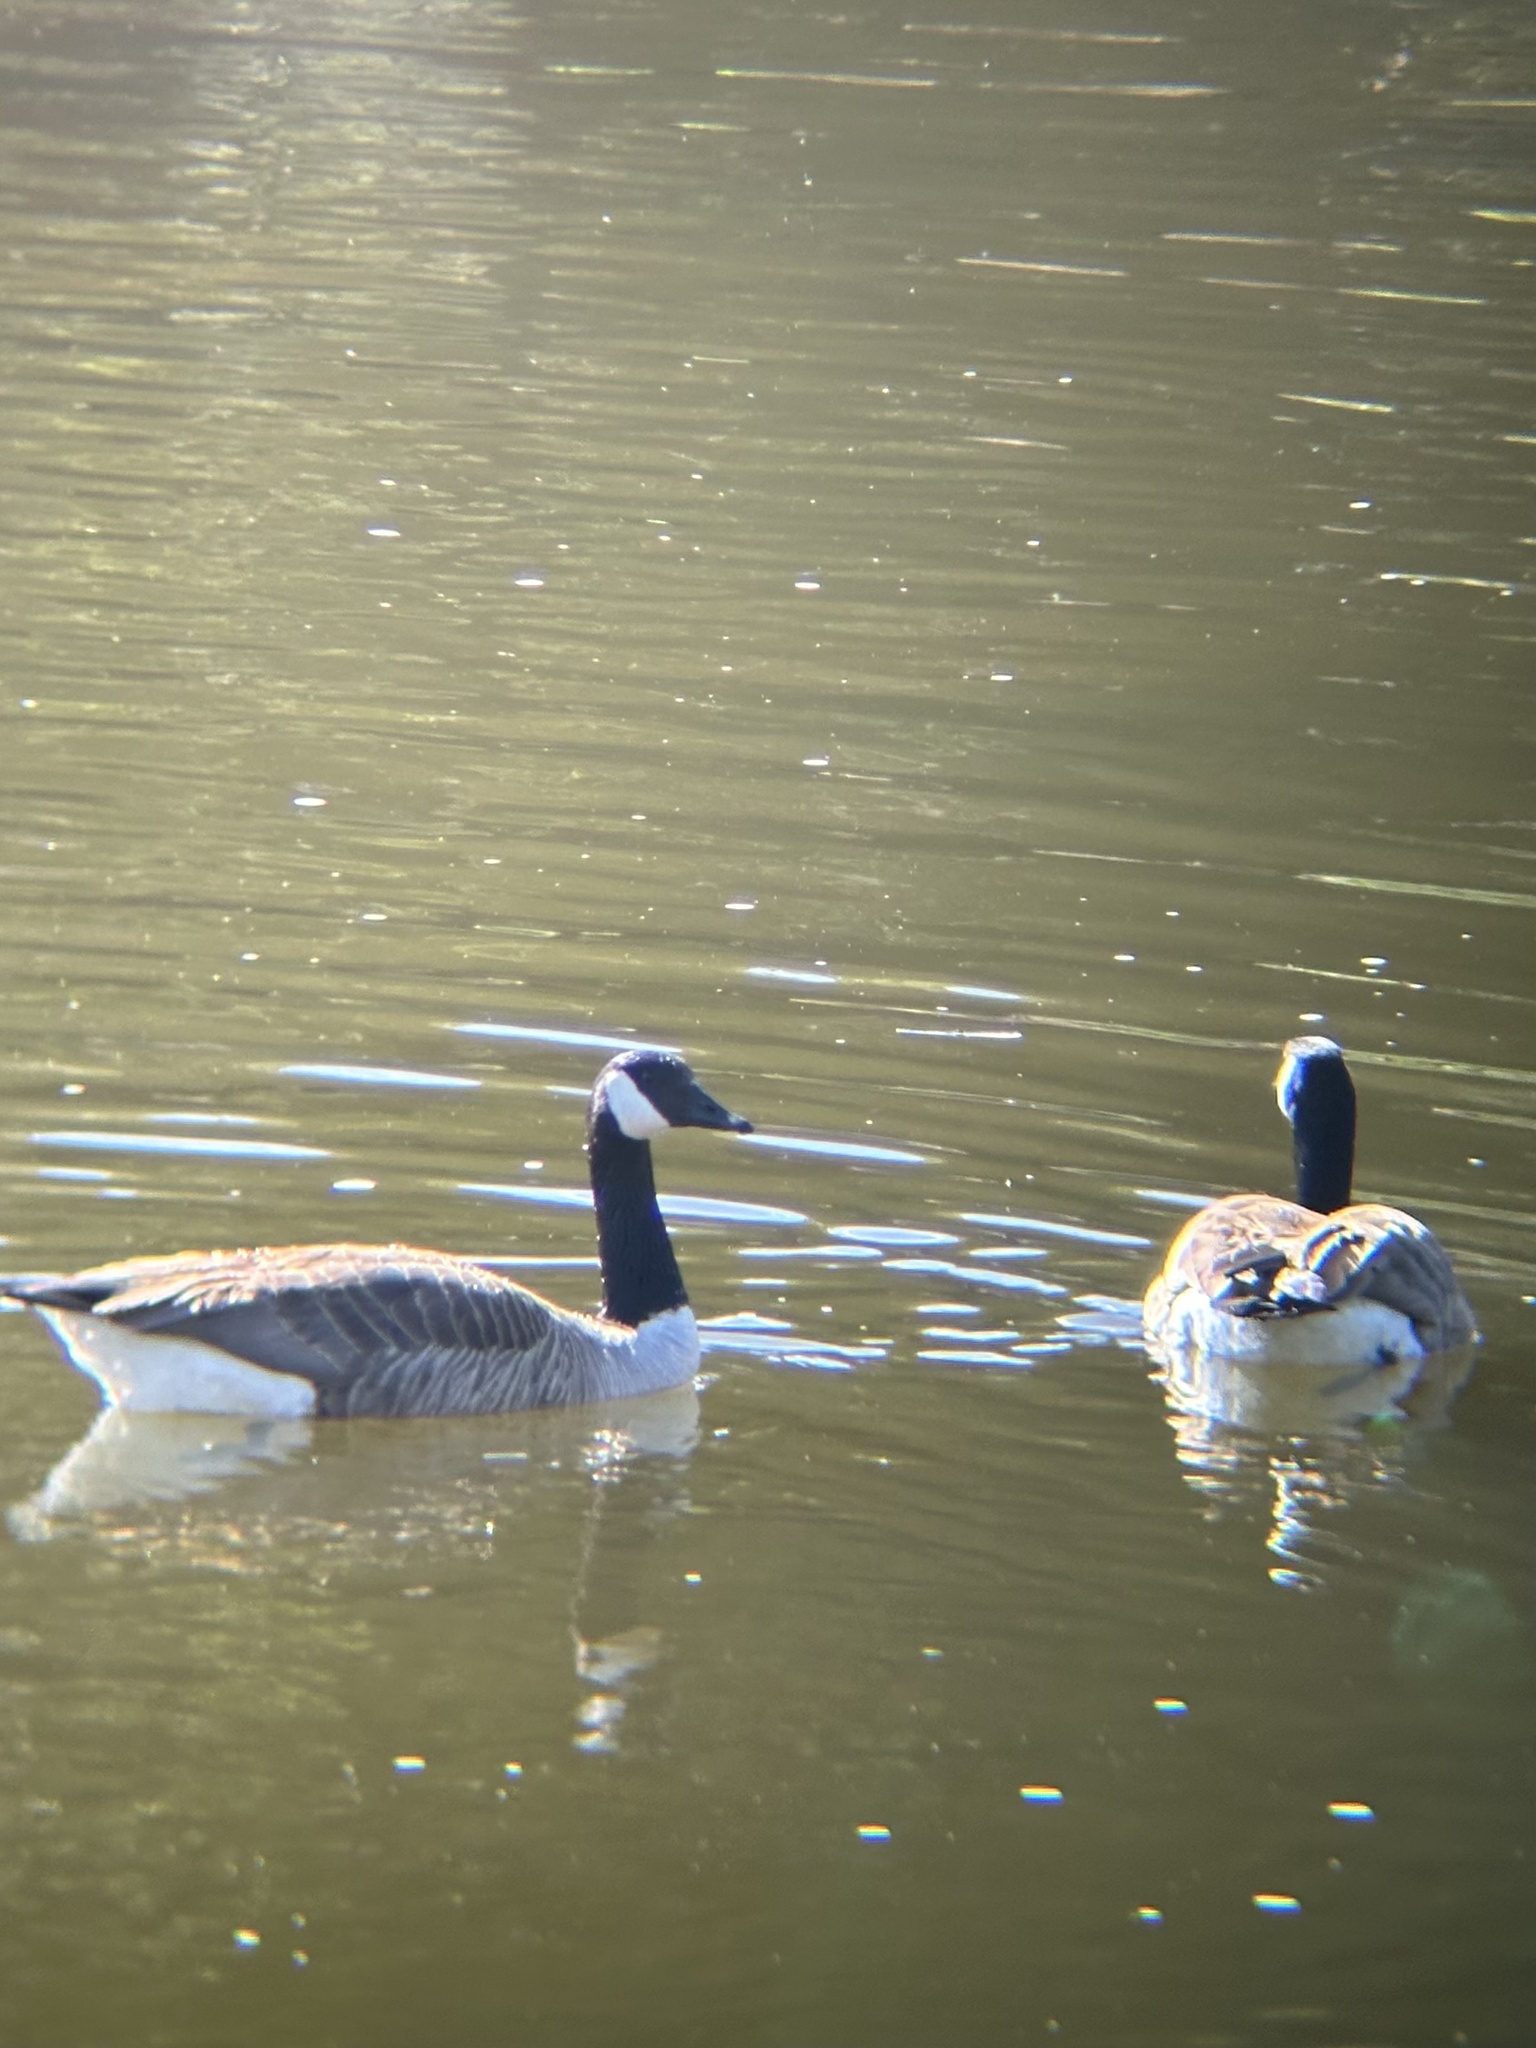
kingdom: Animalia
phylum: Chordata
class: Aves
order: Anseriformes
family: Anatidae
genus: Branta
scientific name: Branta canadensis
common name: Canada goose
